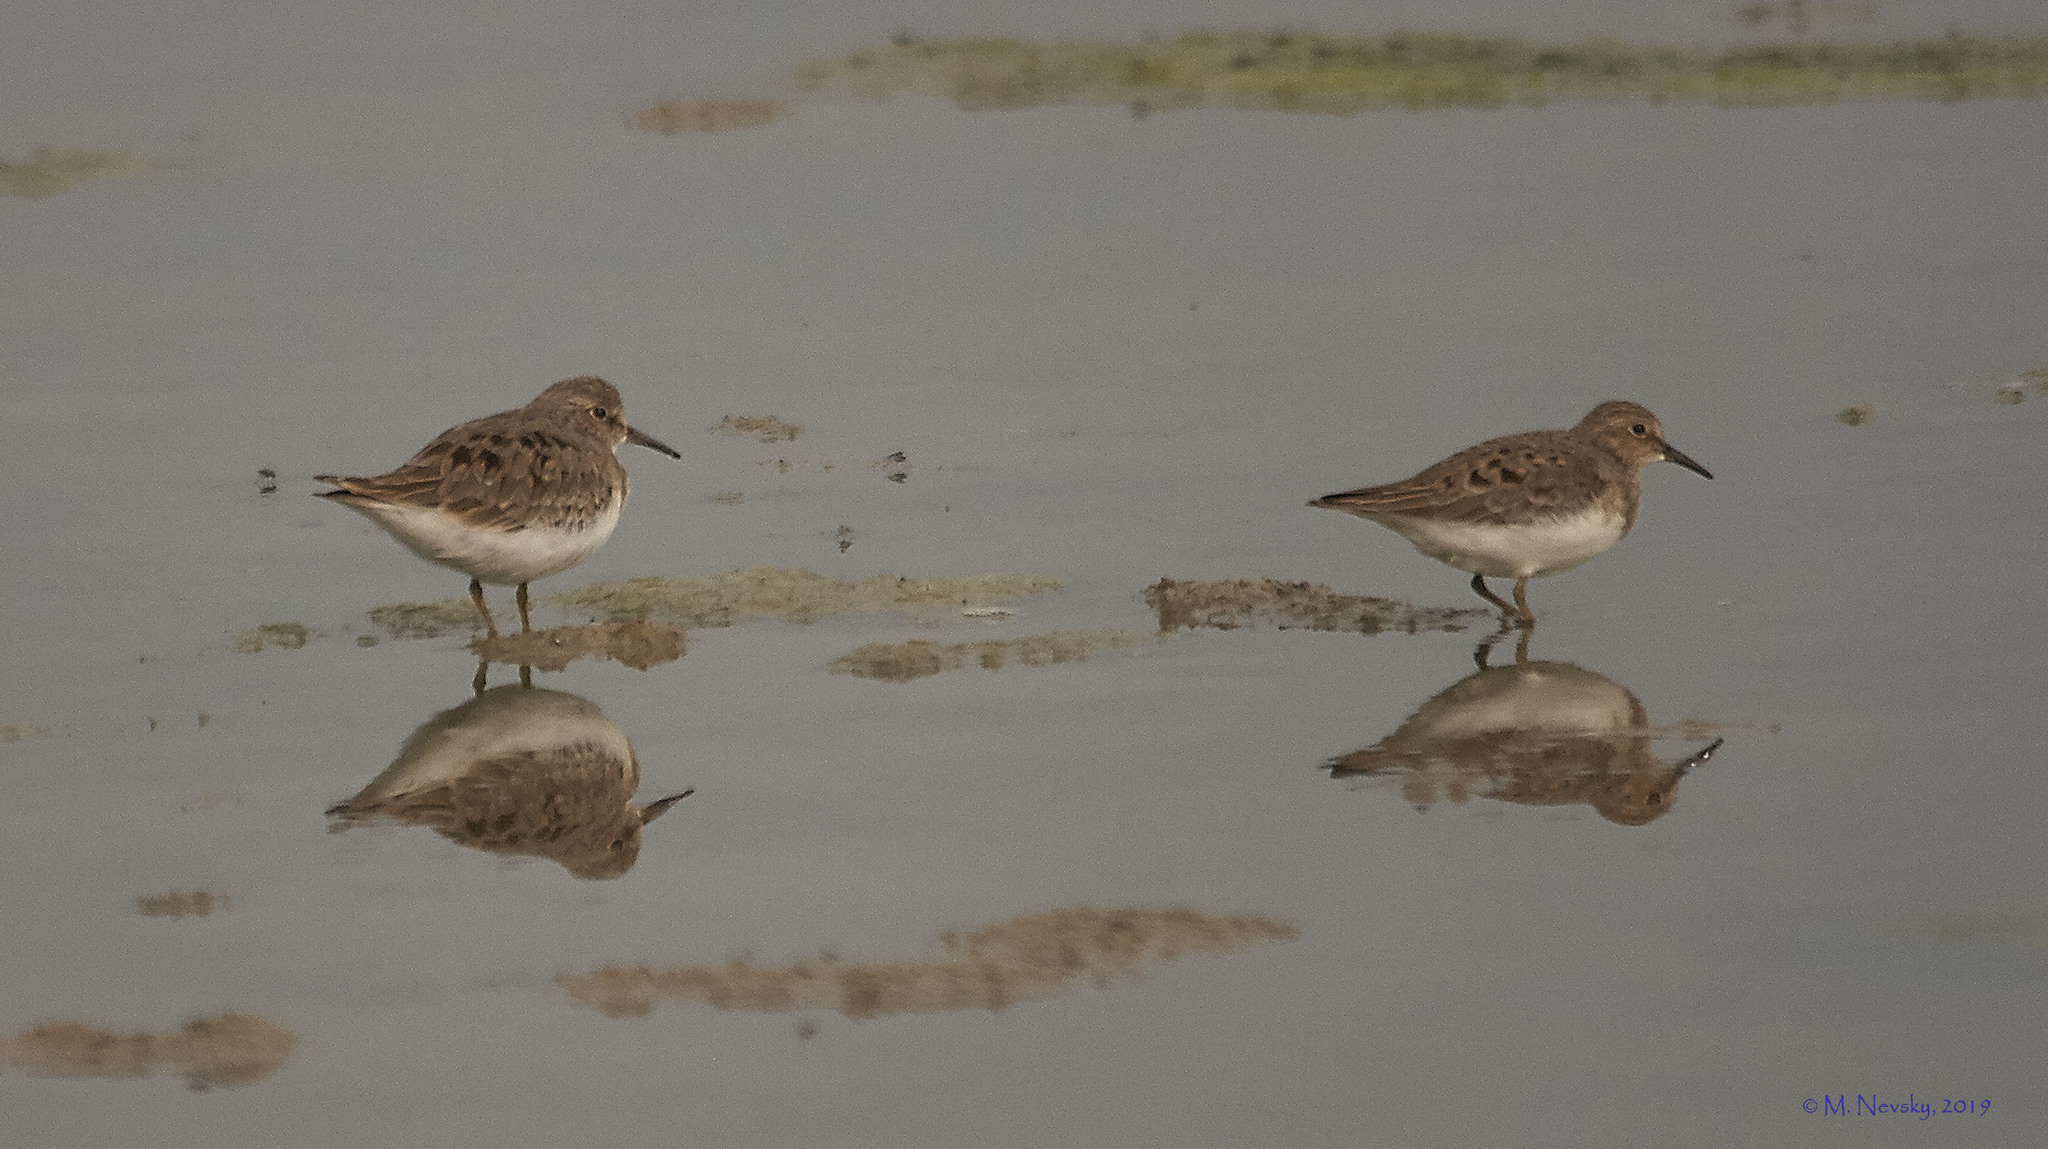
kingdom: Animalia
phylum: Chordata
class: Aves
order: Charadriiformes
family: Scolopacidae
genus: Calidris
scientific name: Calidris temminckii
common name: Temminck's stint
